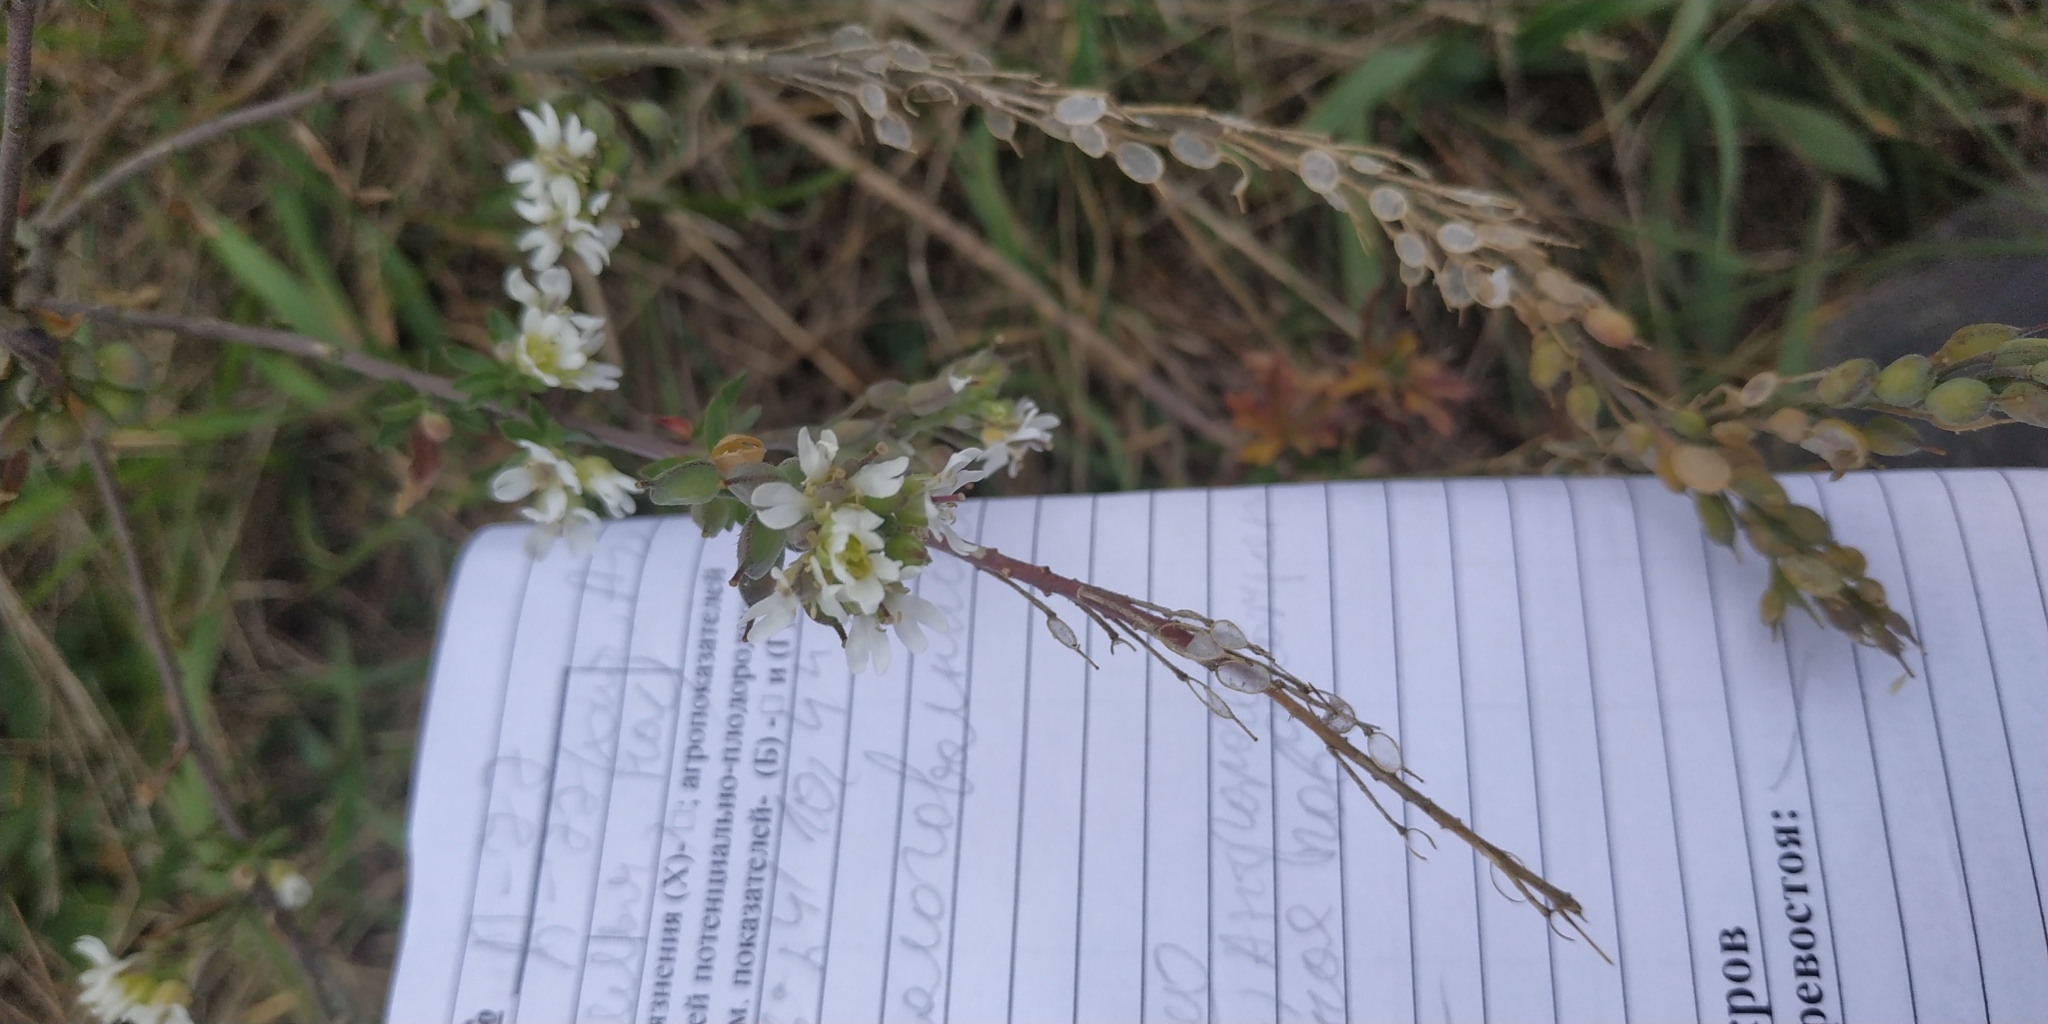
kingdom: Plantae
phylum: Tracheophyta
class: Magnoliopsida
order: Brassicales
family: Brassicaceae
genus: Berteroa
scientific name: Berteroa incana
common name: Hoary alison
